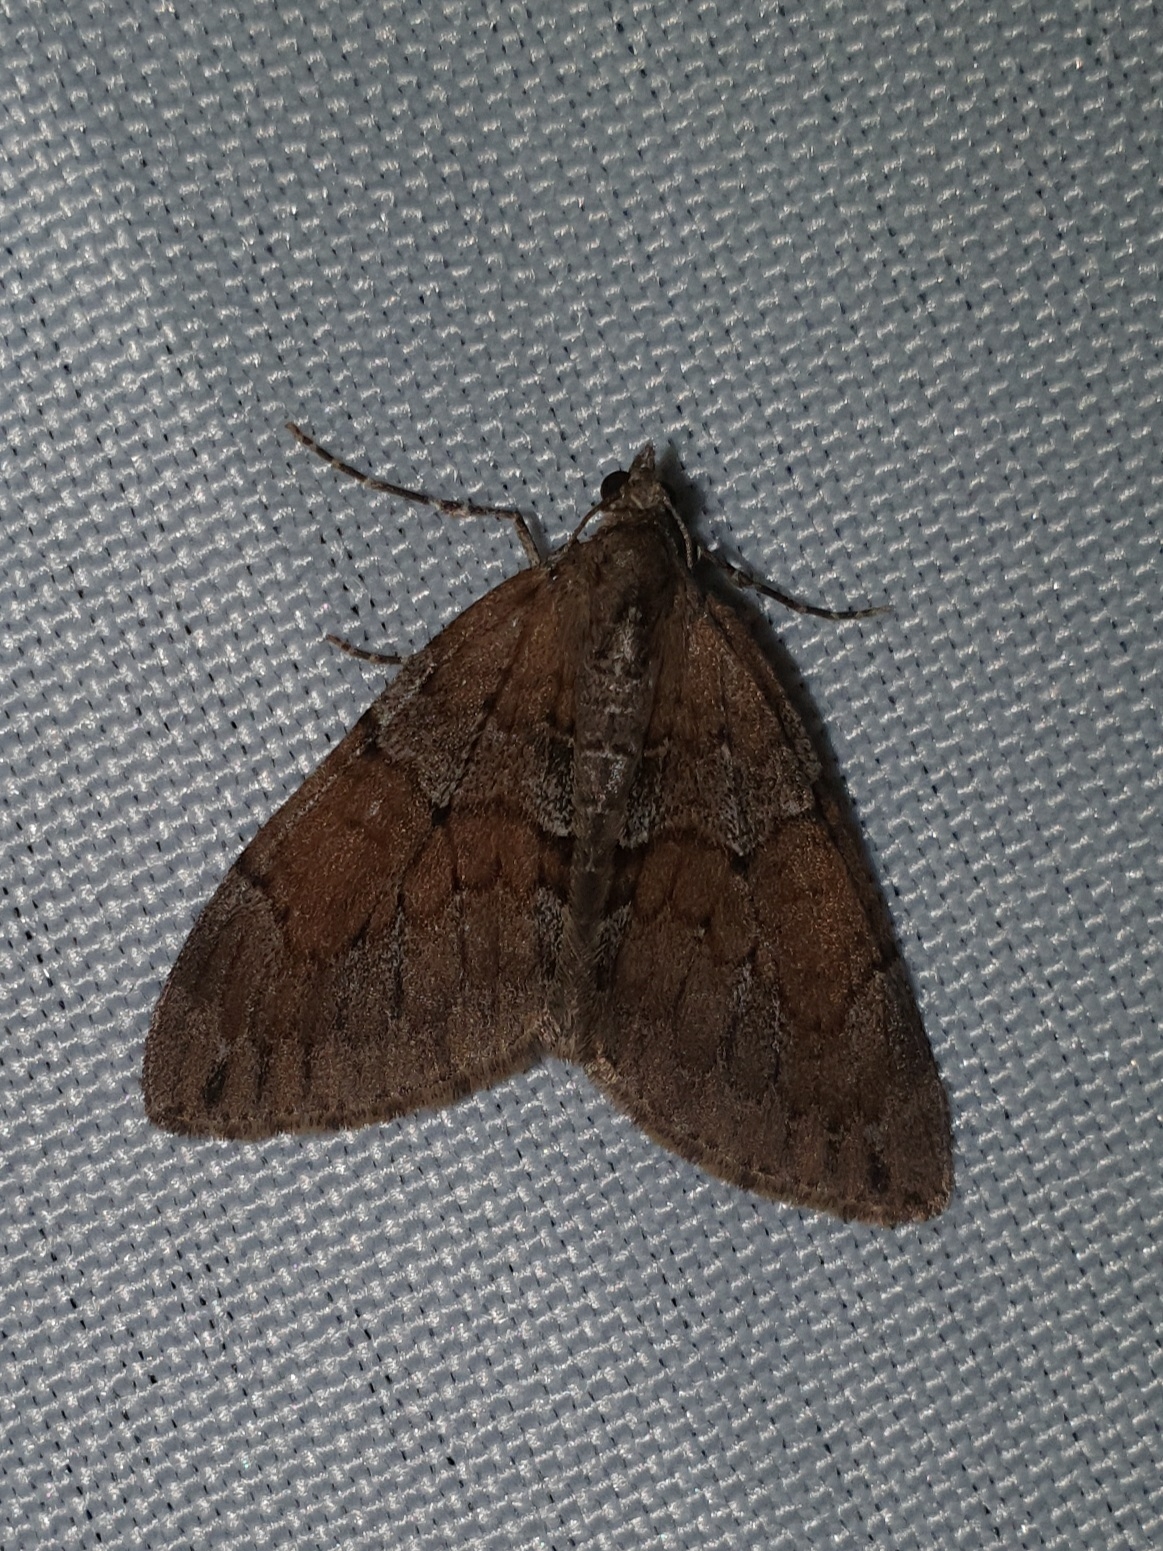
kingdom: Animalia
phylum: Arthropoda
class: Insecta
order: Lepidoptera
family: Geometridae
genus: Thera
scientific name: Thera obeliscata
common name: Grey pine carpet
